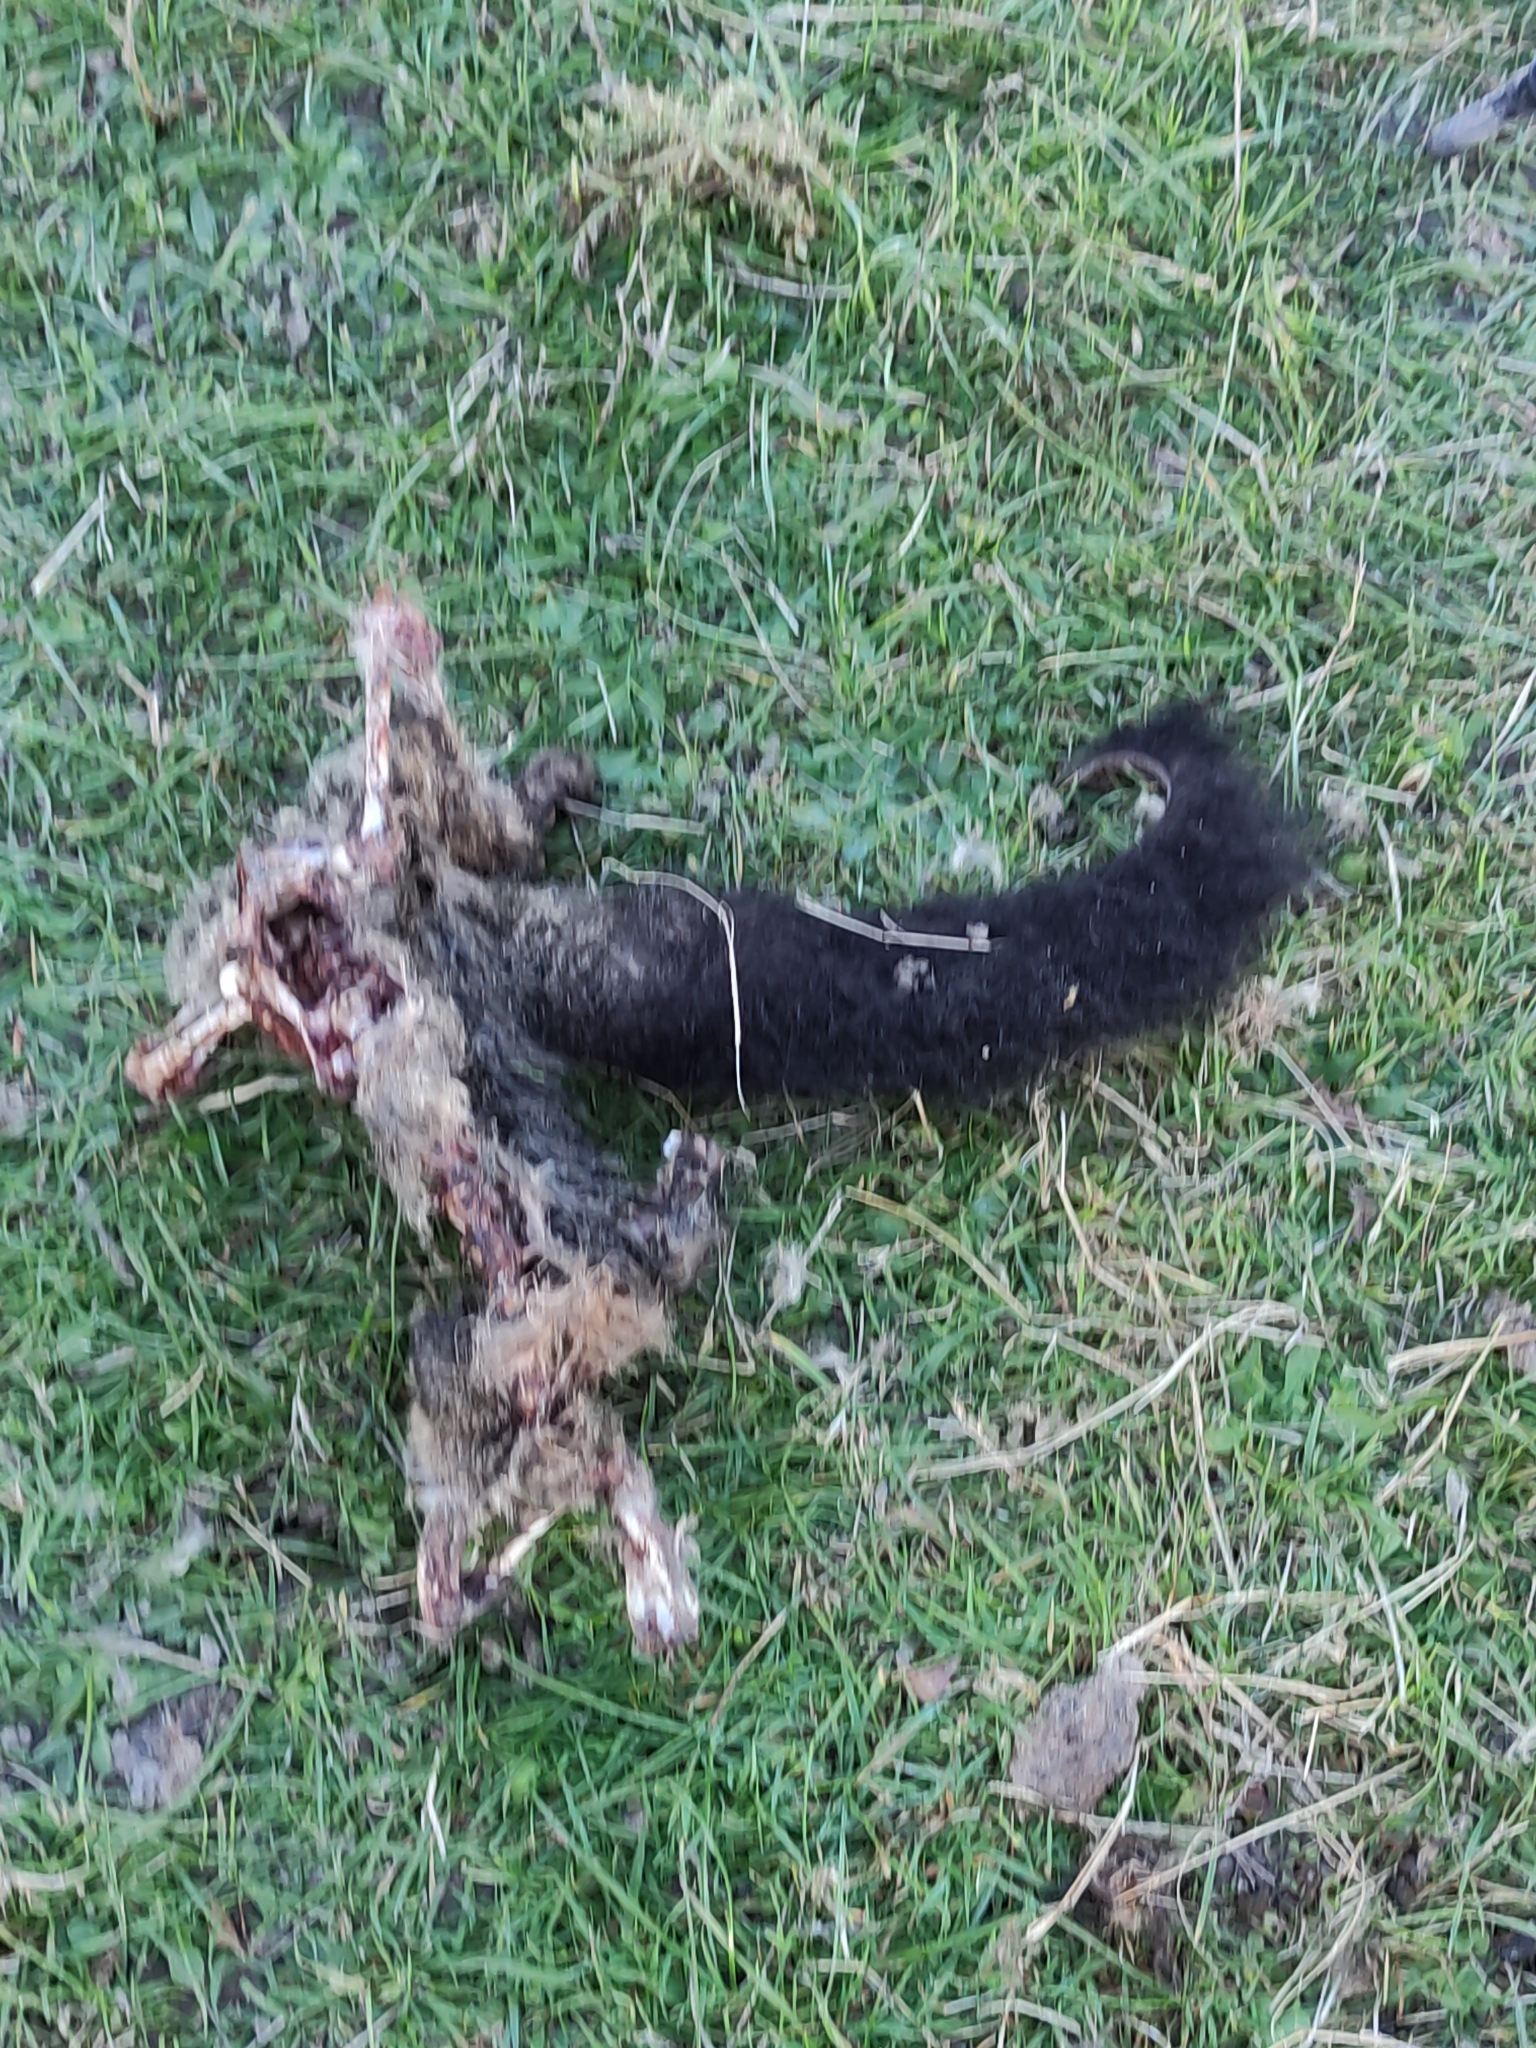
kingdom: Animalia
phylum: Chordata
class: Mammalia
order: Diprotodontia
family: Phalangeridae
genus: Trichosurus
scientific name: Trichosurus vulpecula
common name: Common brushtail
